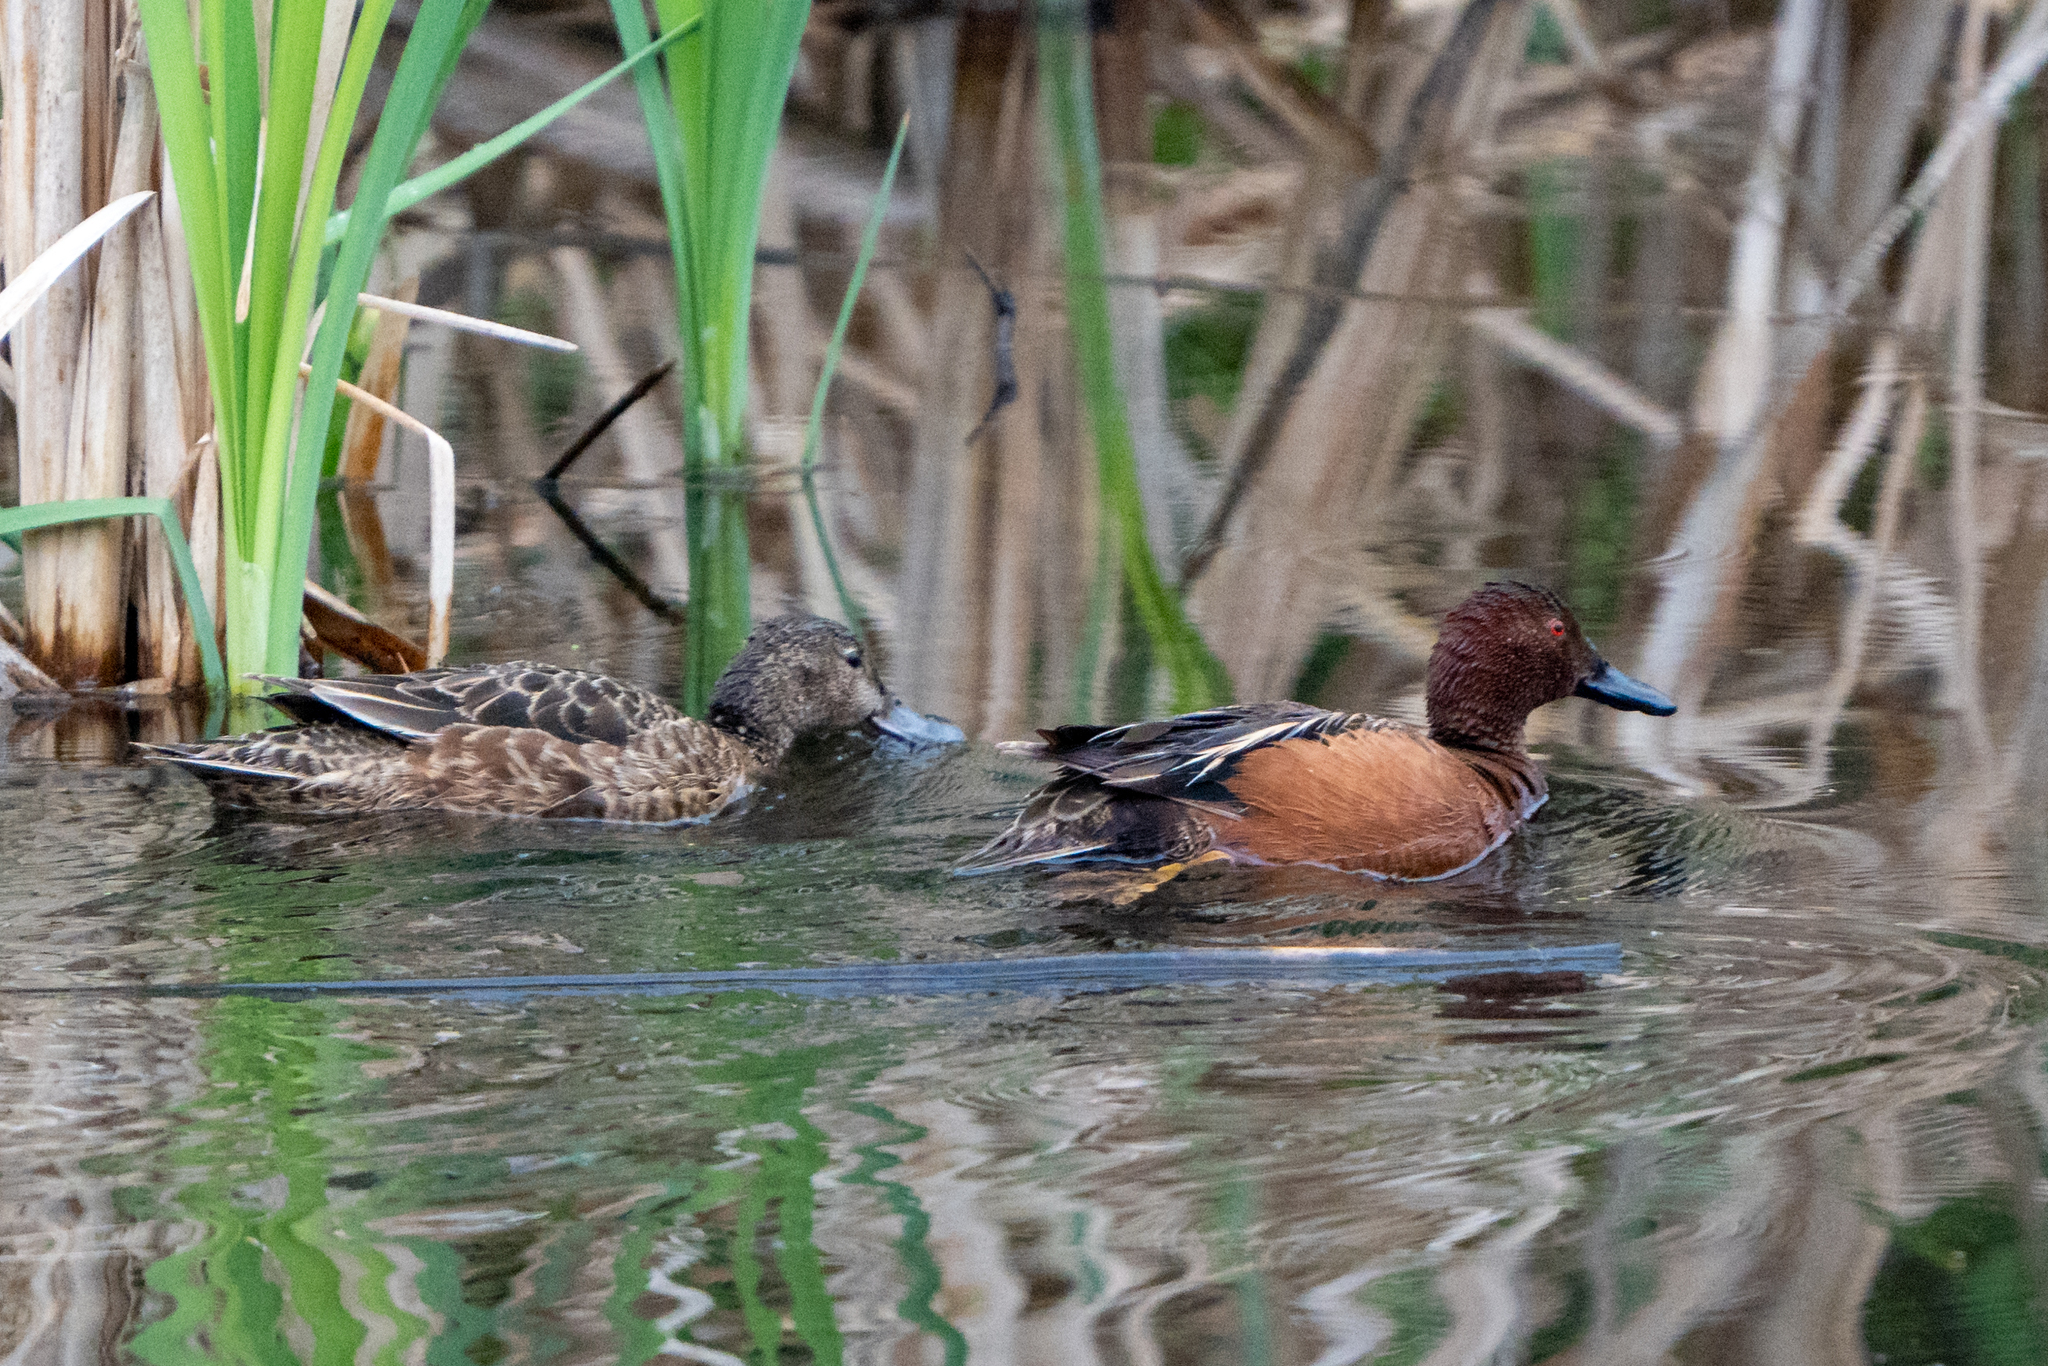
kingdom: Animalia
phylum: Chordata
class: Aves
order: Anseriformes
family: Anatidae
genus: Spatula
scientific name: Spatula cyanoptera
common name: Cinnamon teal
